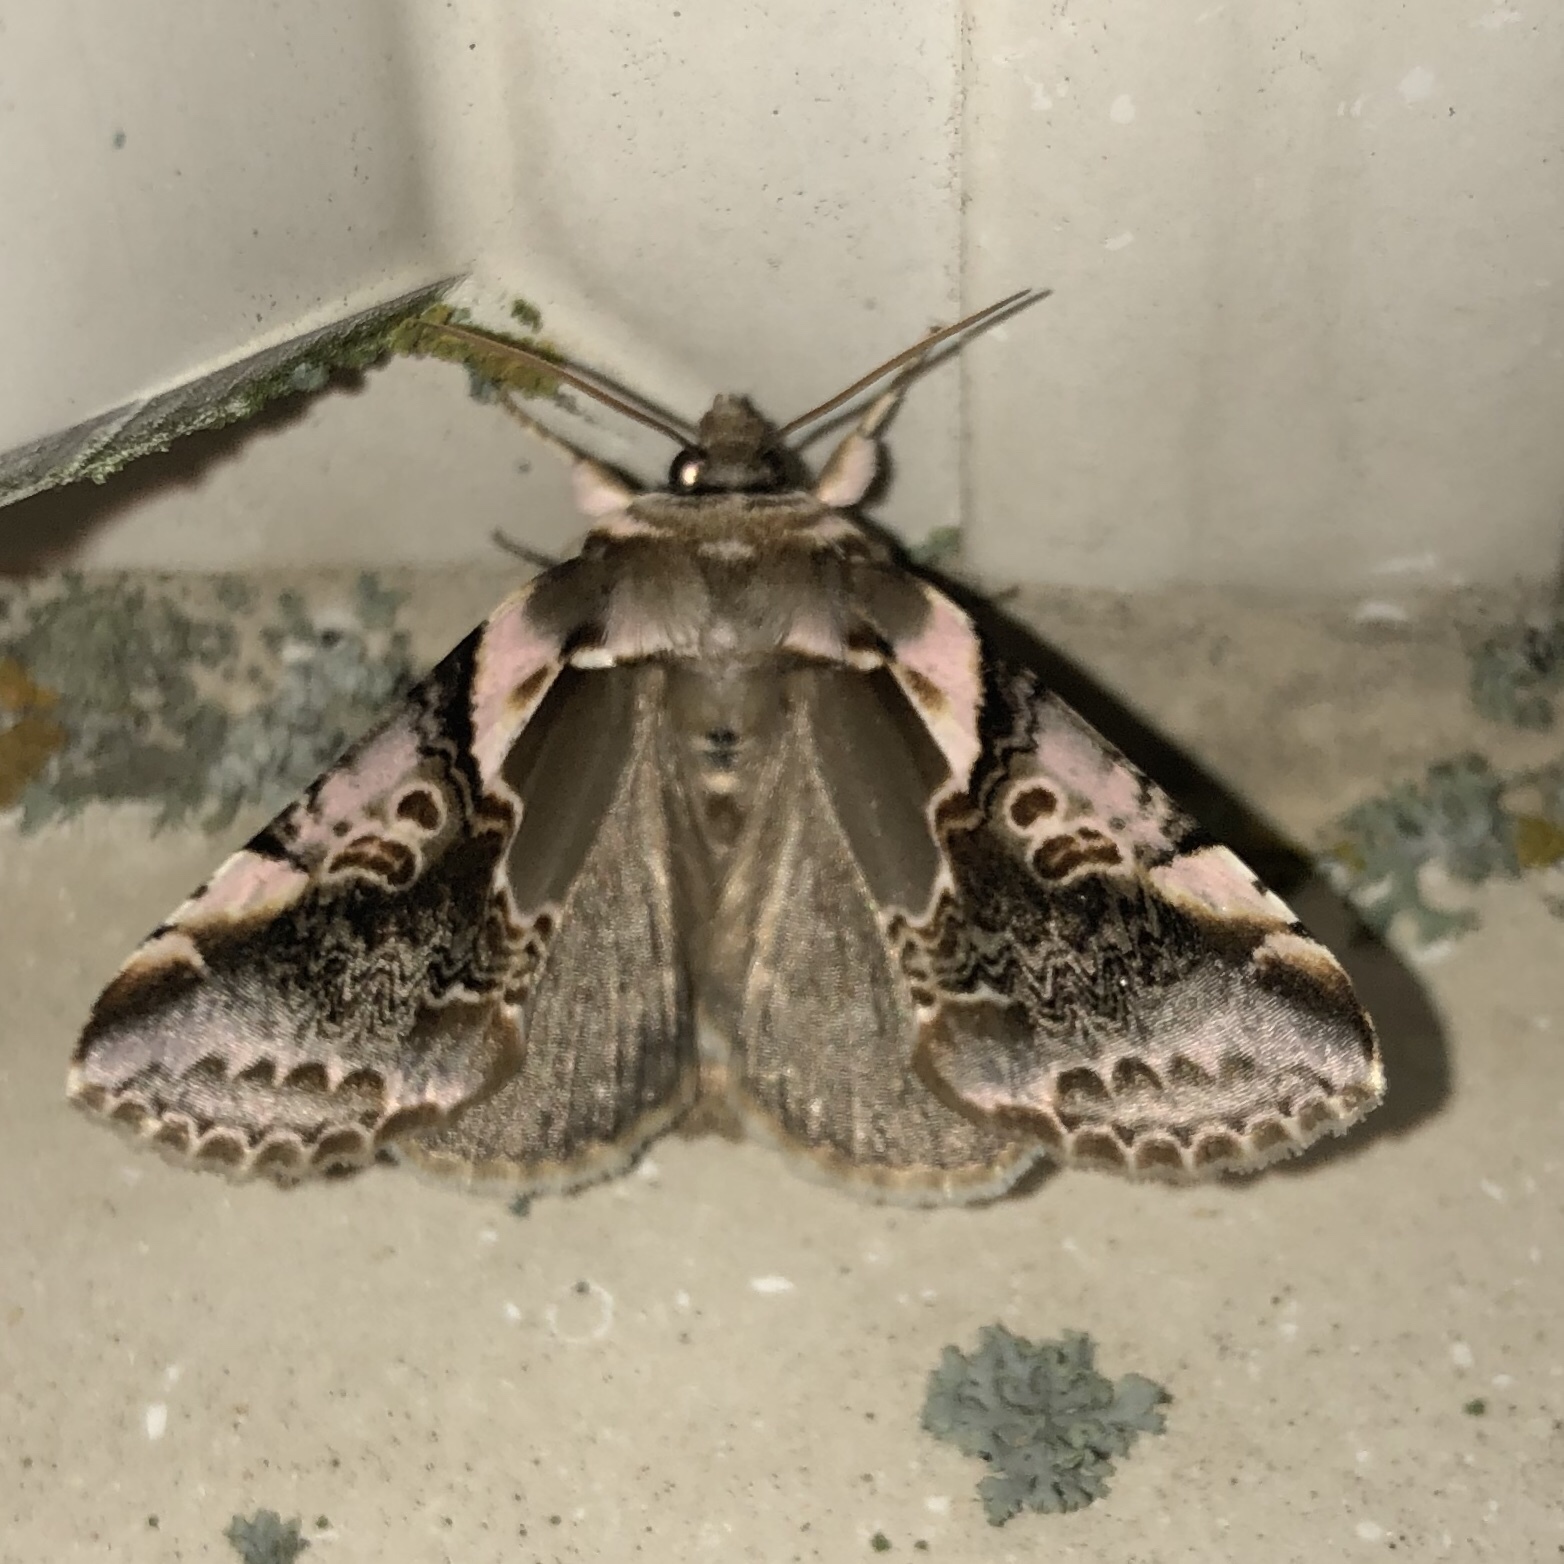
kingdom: Animalia
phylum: Arthropoda
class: Insecta
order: Lepidoptera
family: Drepanidae
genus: Habrosyne
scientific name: Habrosyne gloriosa
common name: Glorious habrosyne moth
